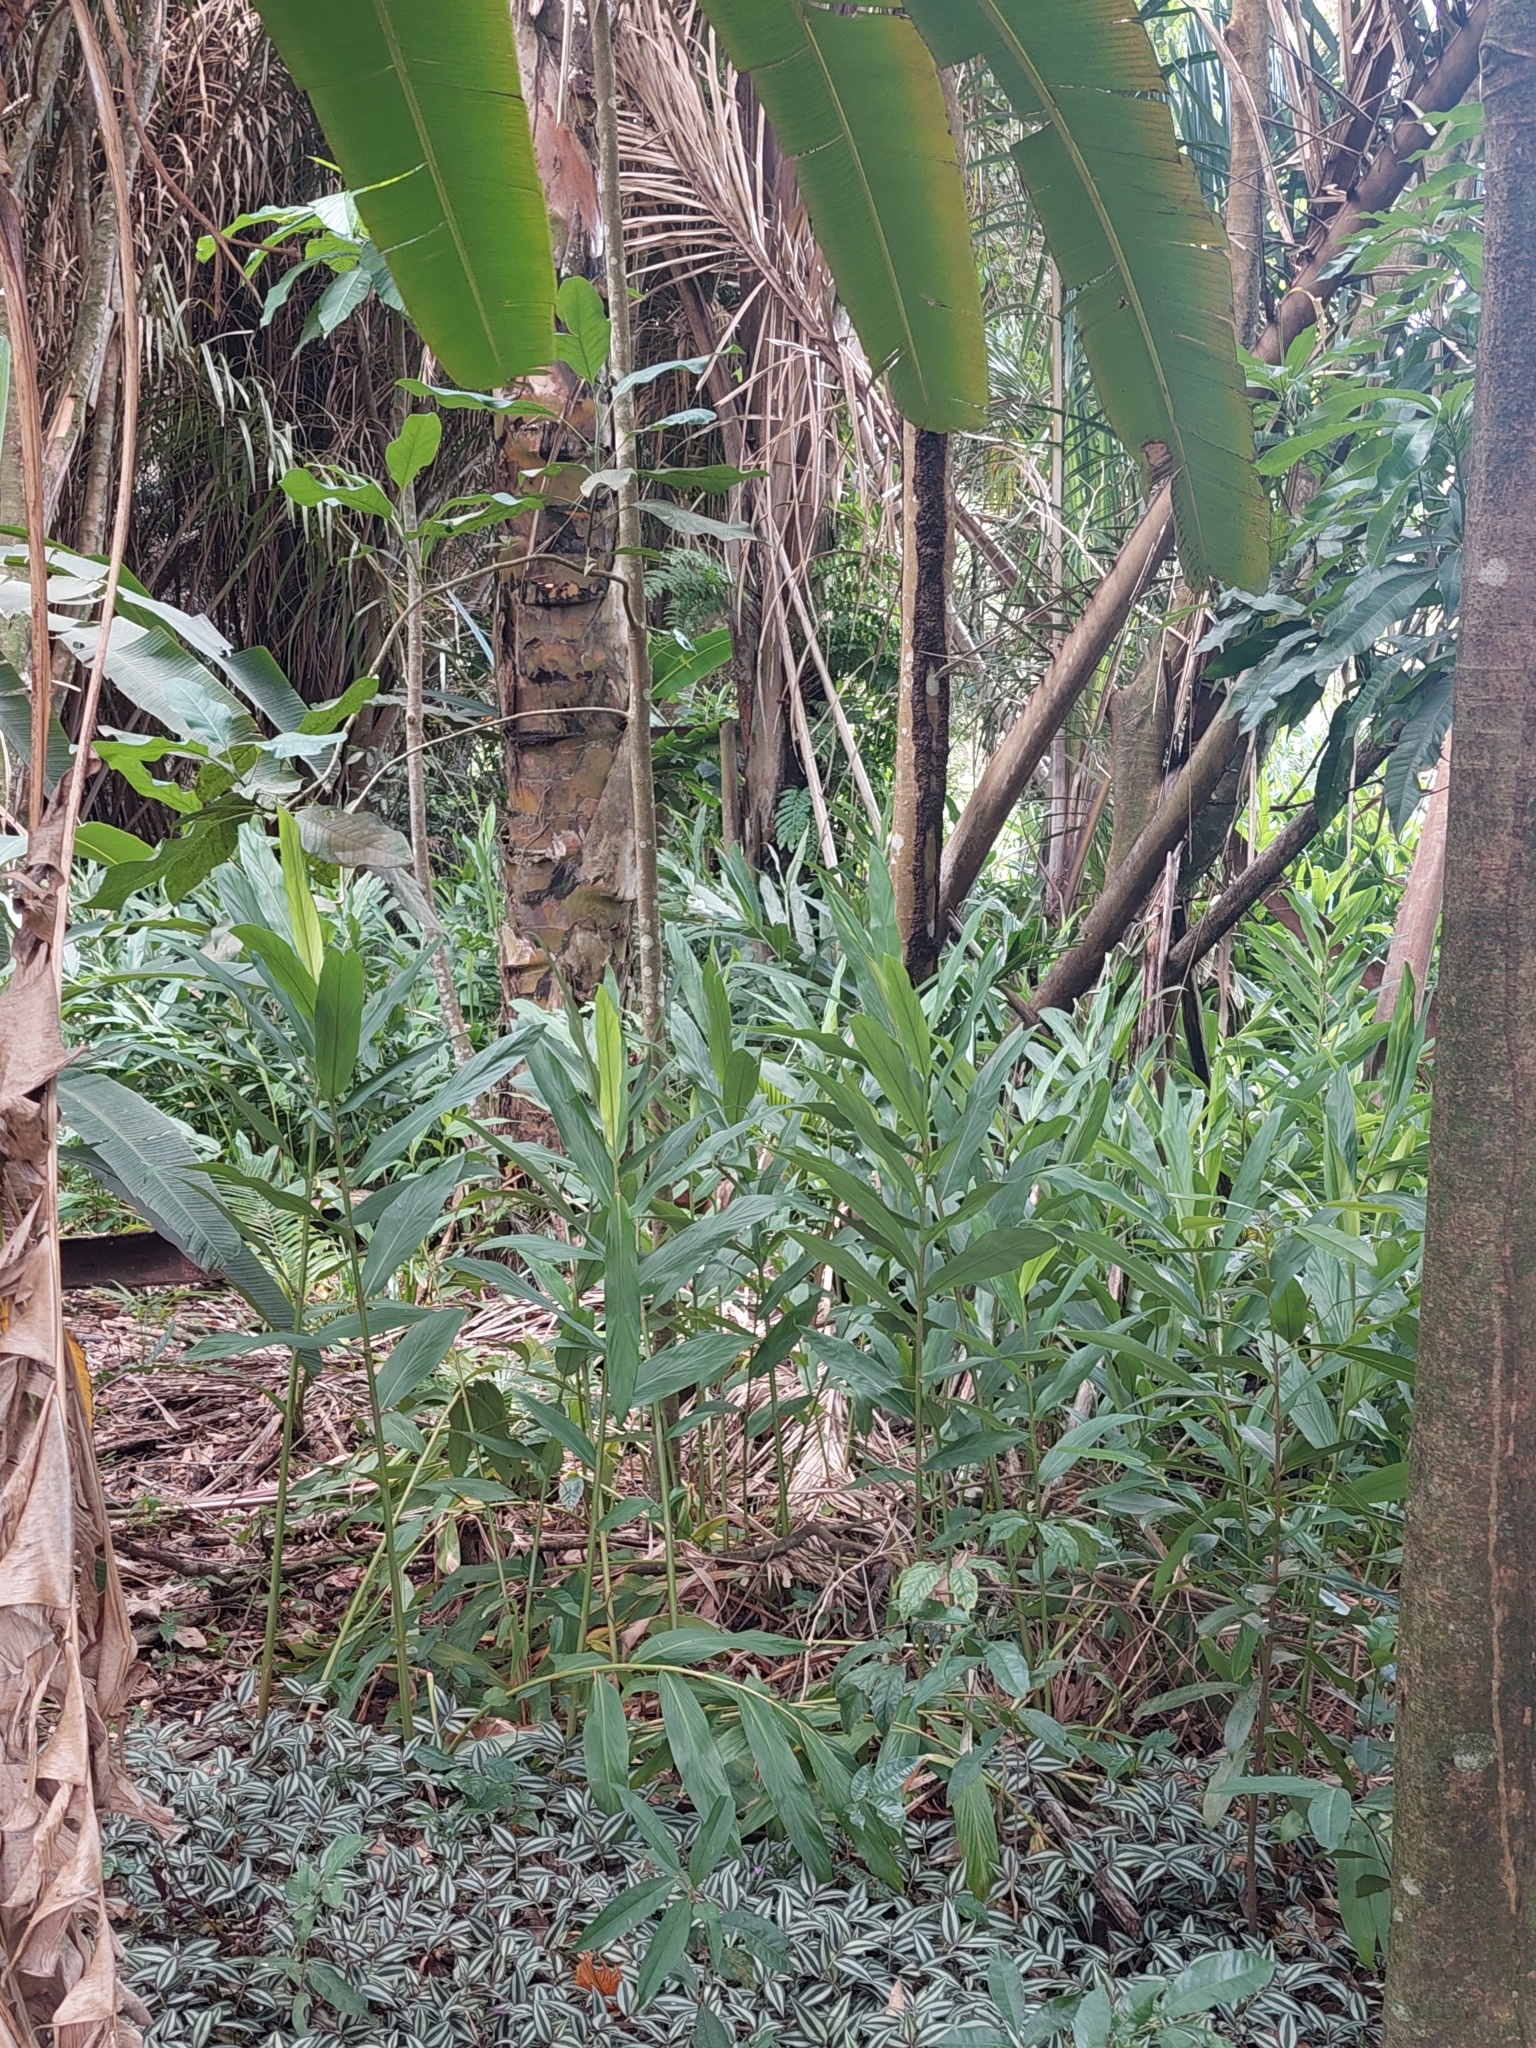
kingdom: Plantae
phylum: Tracheophyta
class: Liliopsida
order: Zingiberales
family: Zingiberaceae
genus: Hedychium
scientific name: Hedychium coronarium
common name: White garland-lily
